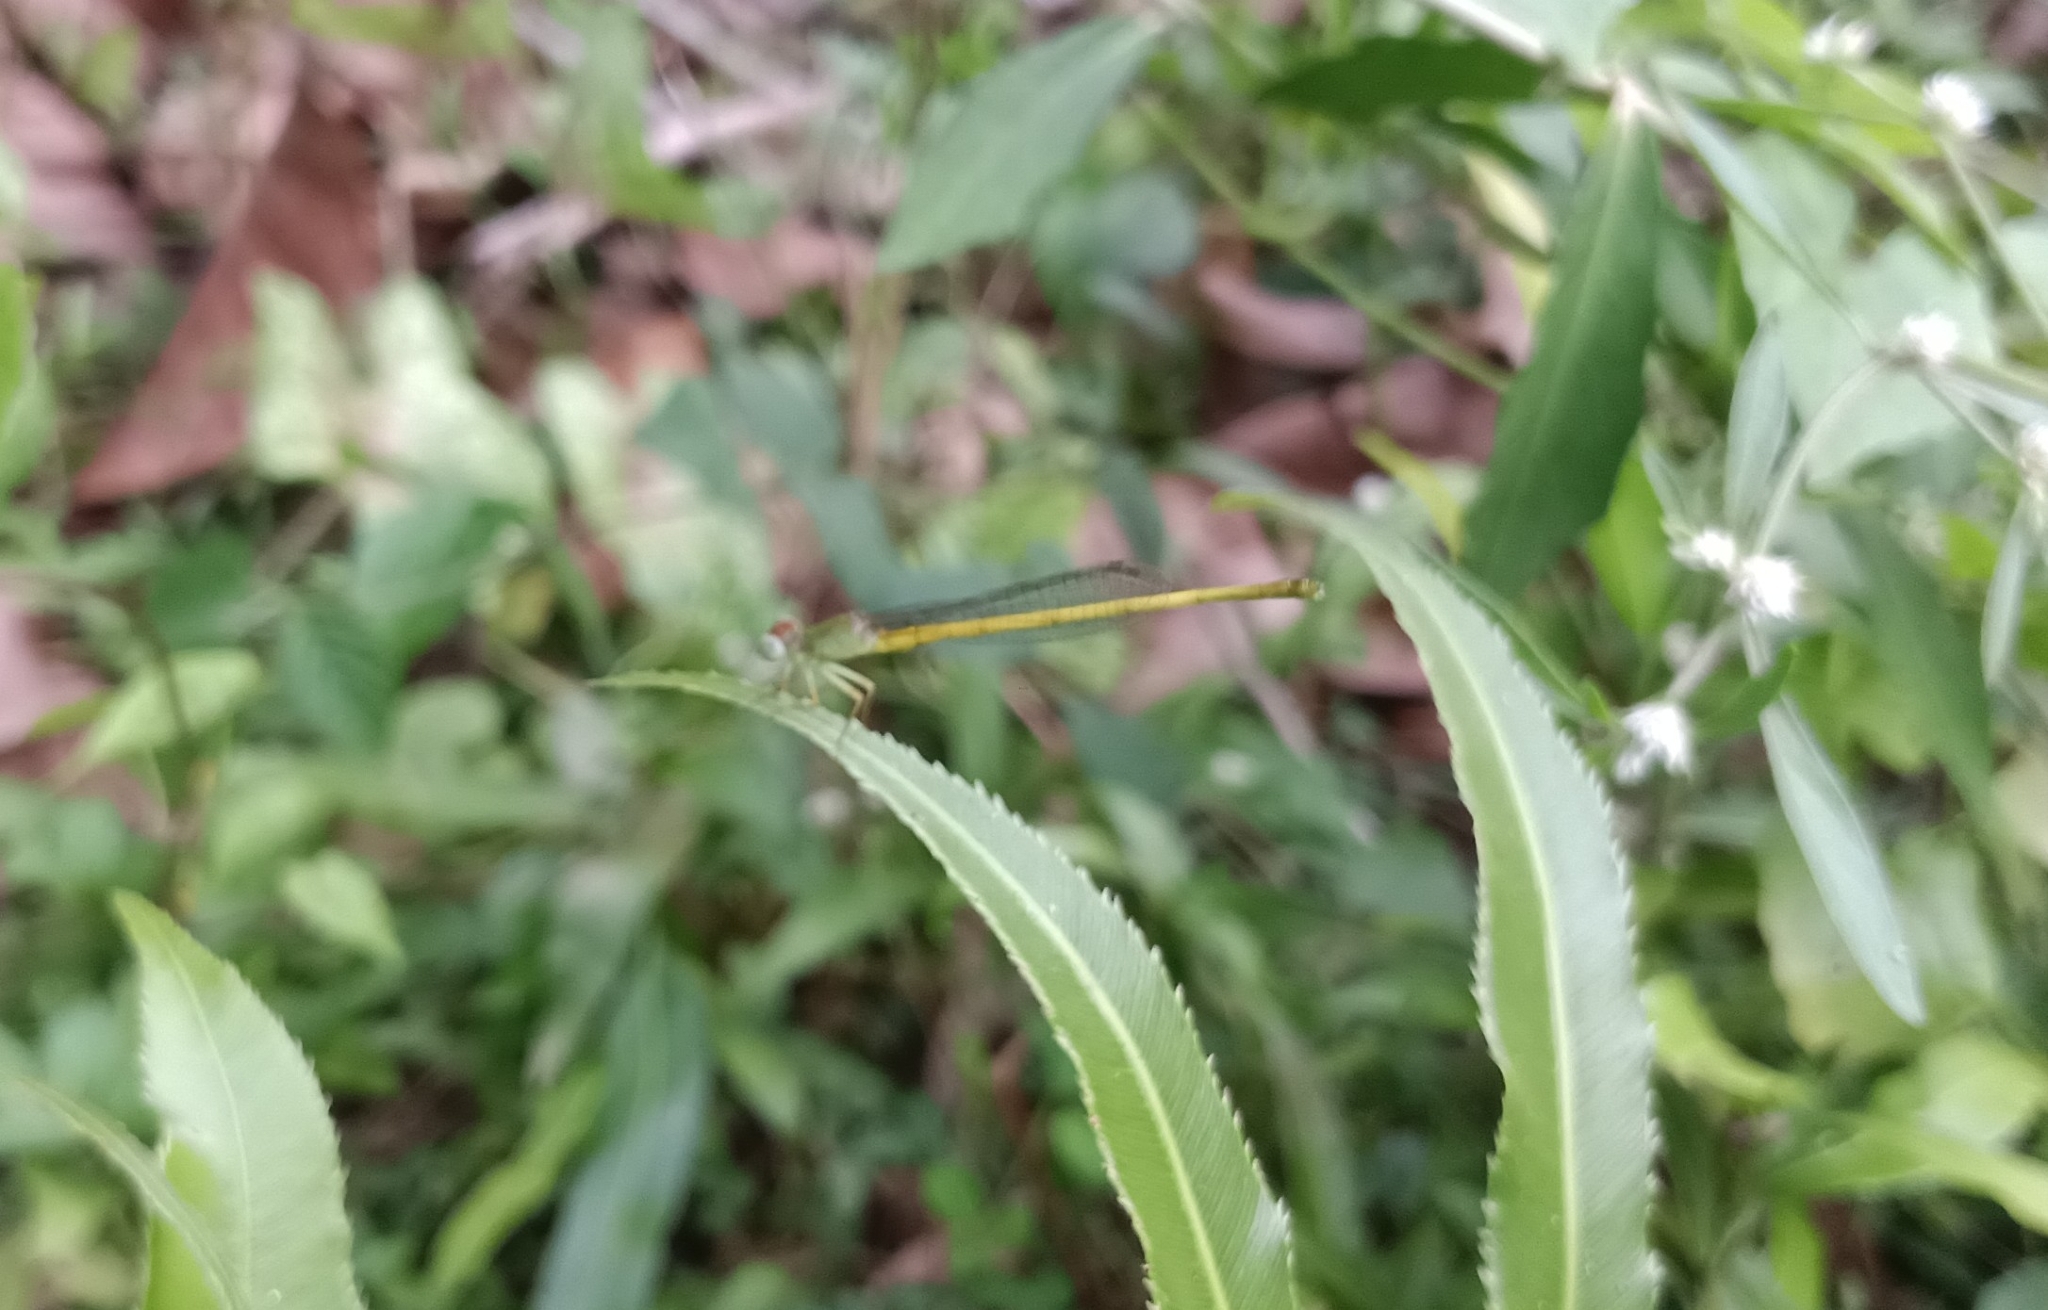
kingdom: Animalia
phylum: Arthropoda
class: Insecta
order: Odonata
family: Coenagrionidae
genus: Ceriagrion
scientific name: Ceriagrion coromandelianum
